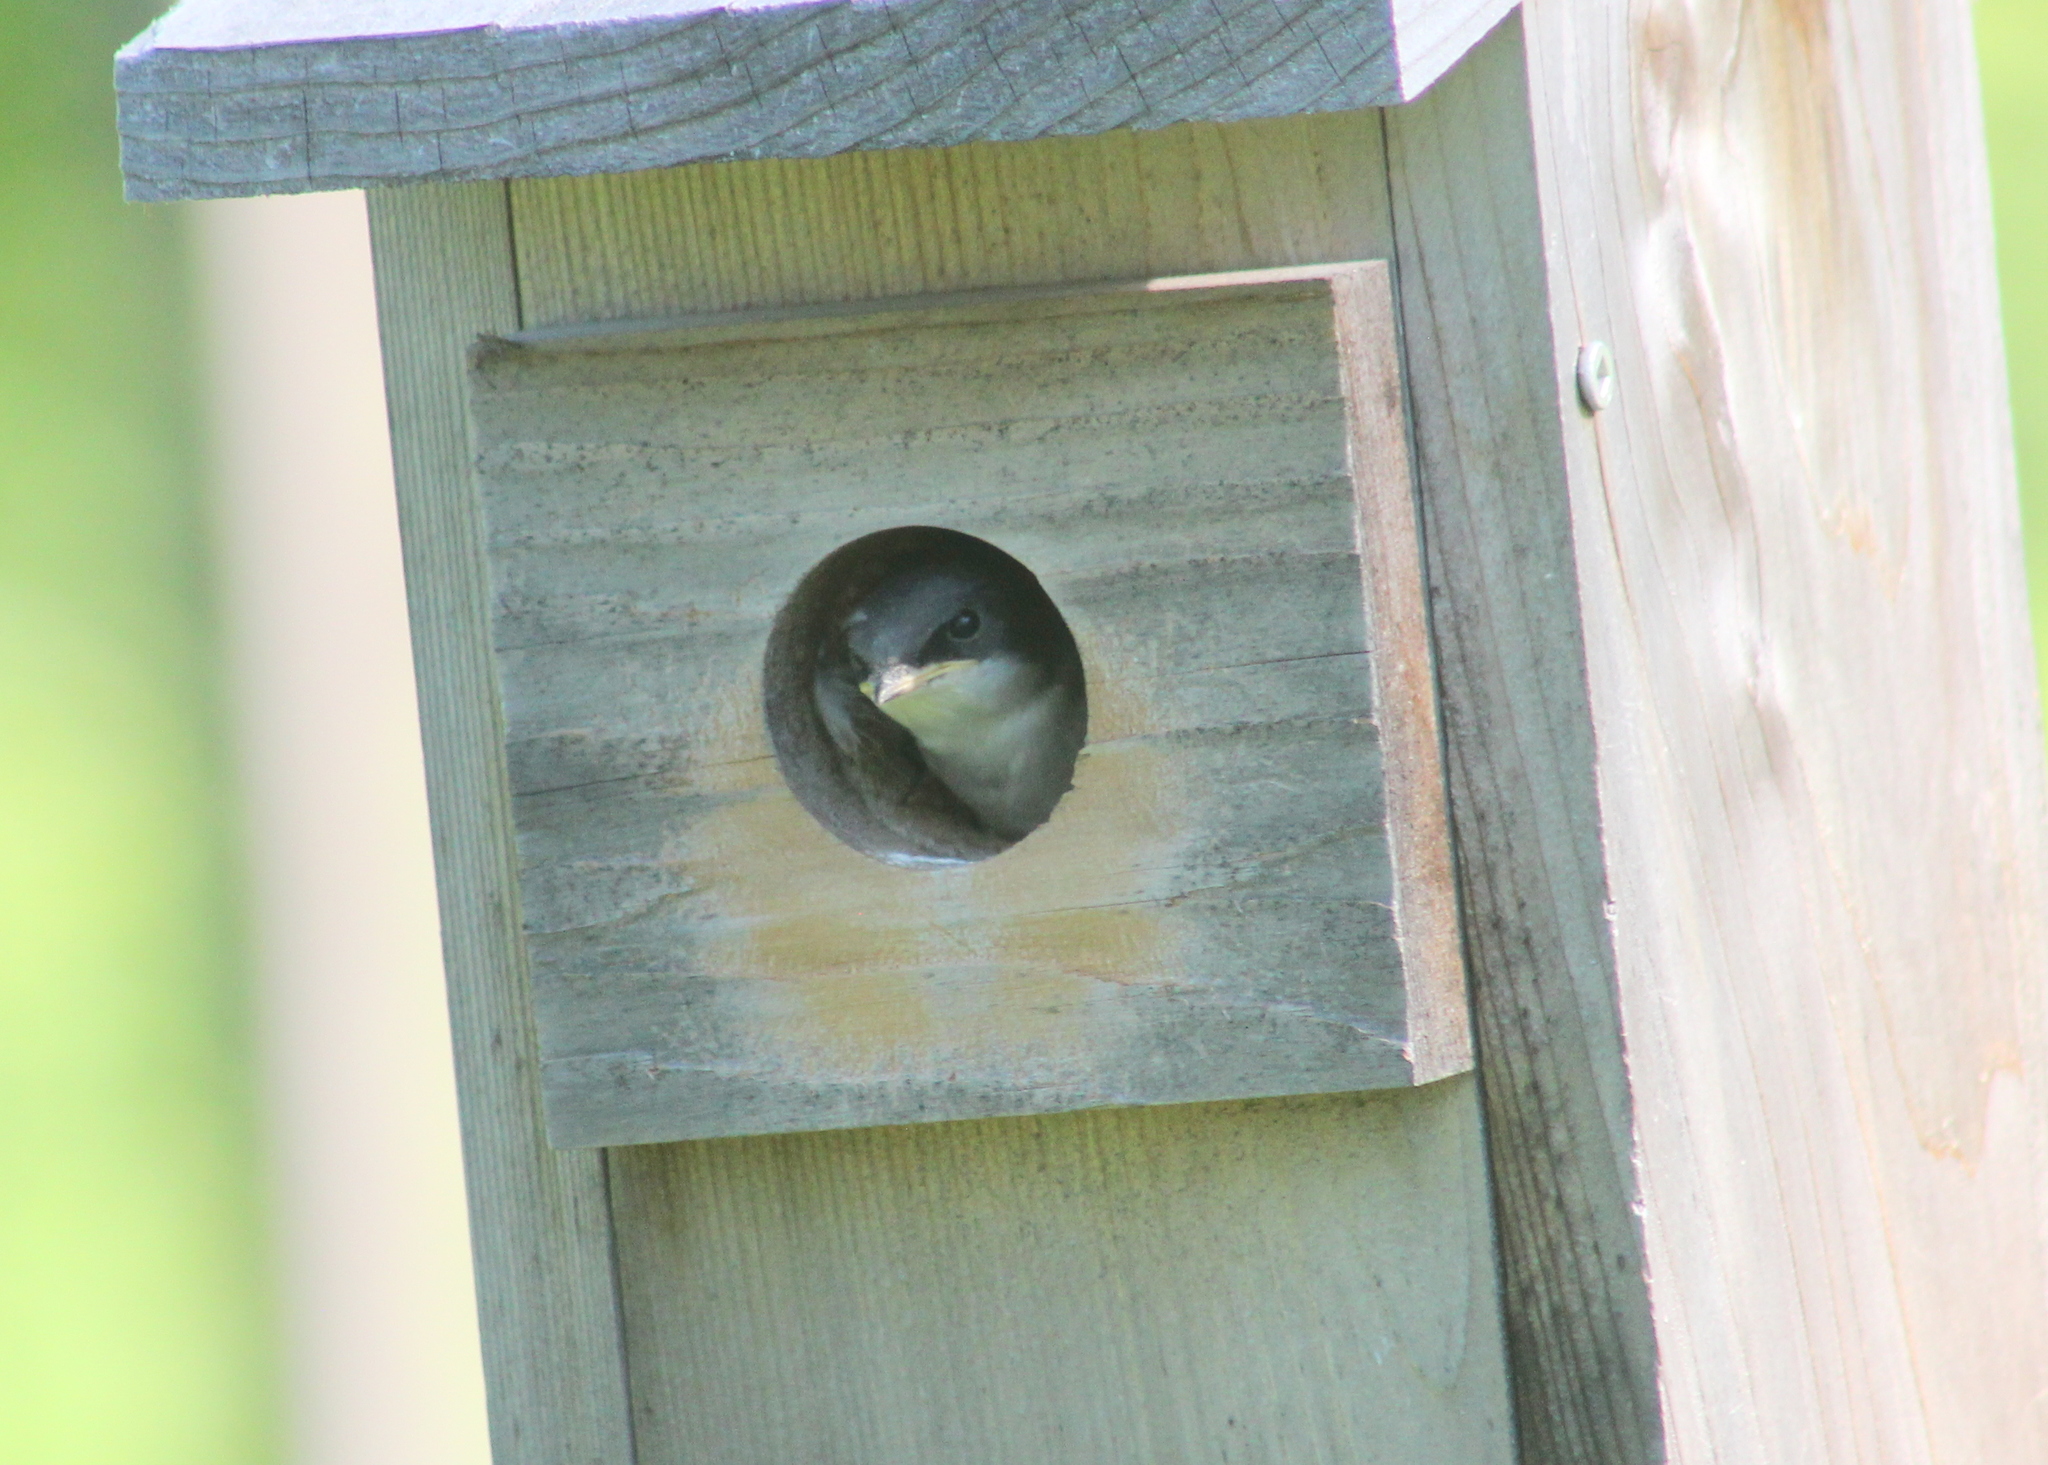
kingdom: Animalia
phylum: Chordata
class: Aves
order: Passeriformes
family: Hirundinidae
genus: Tachycineta
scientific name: Tachycineta bicolor
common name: Tree swallow
